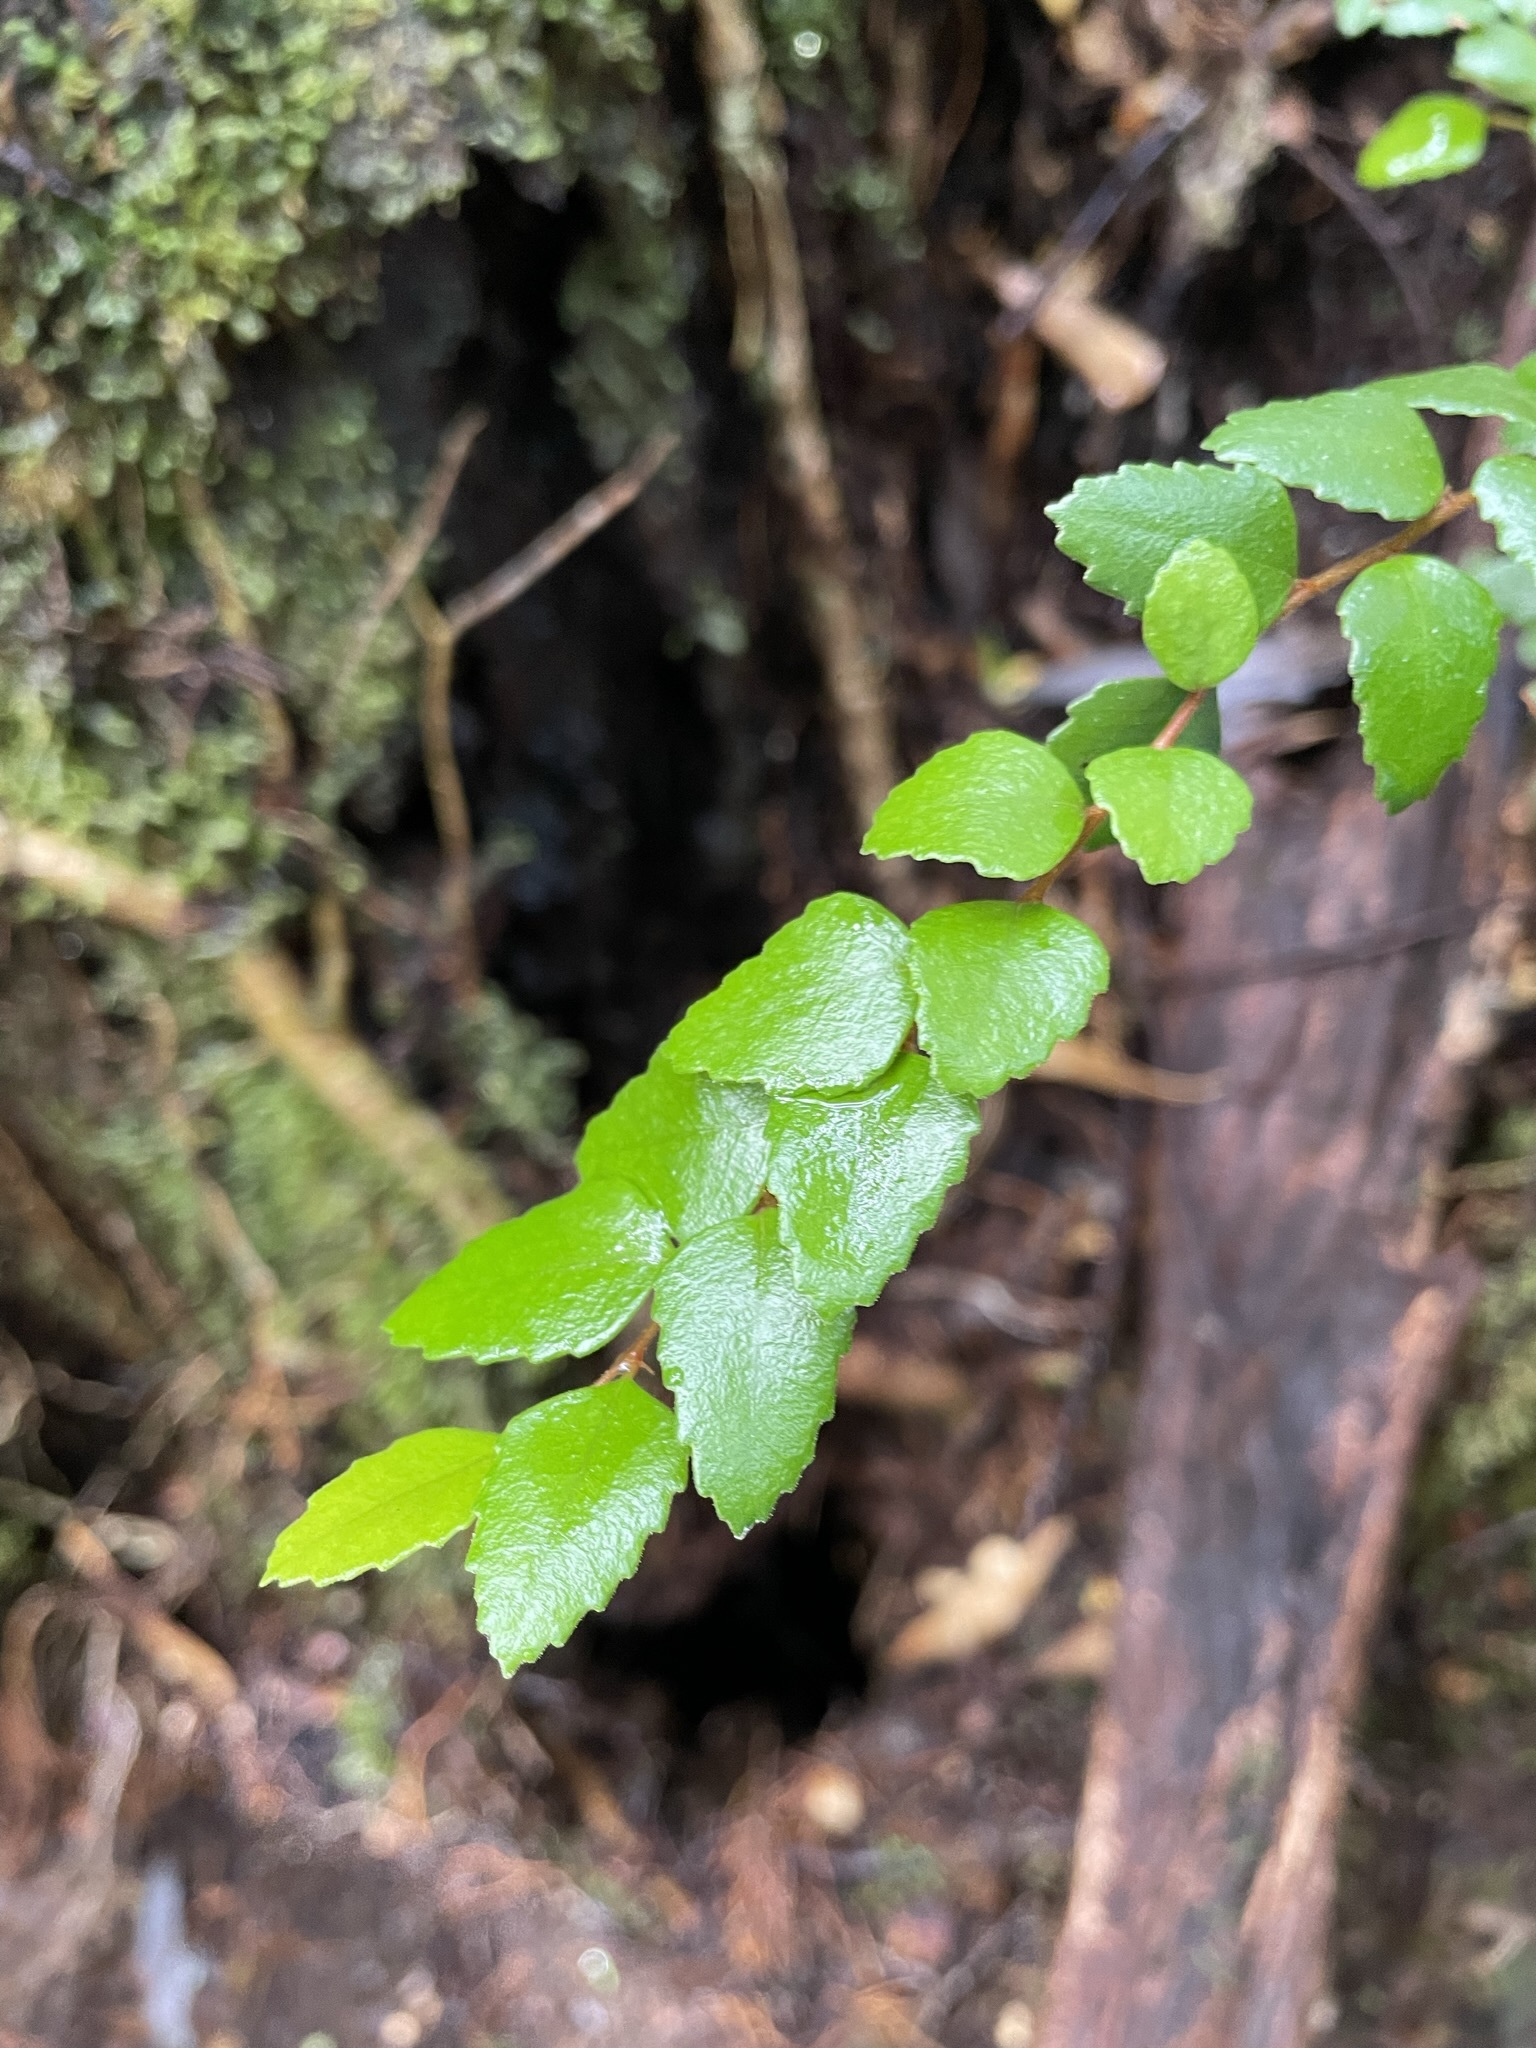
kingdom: Plantae
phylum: Tracheophyta
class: Magnoliopsida
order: Fagales
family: Nothofagaceae
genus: Nothofagus
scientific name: Nothofagus cunninghamii
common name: Myrtle beech
